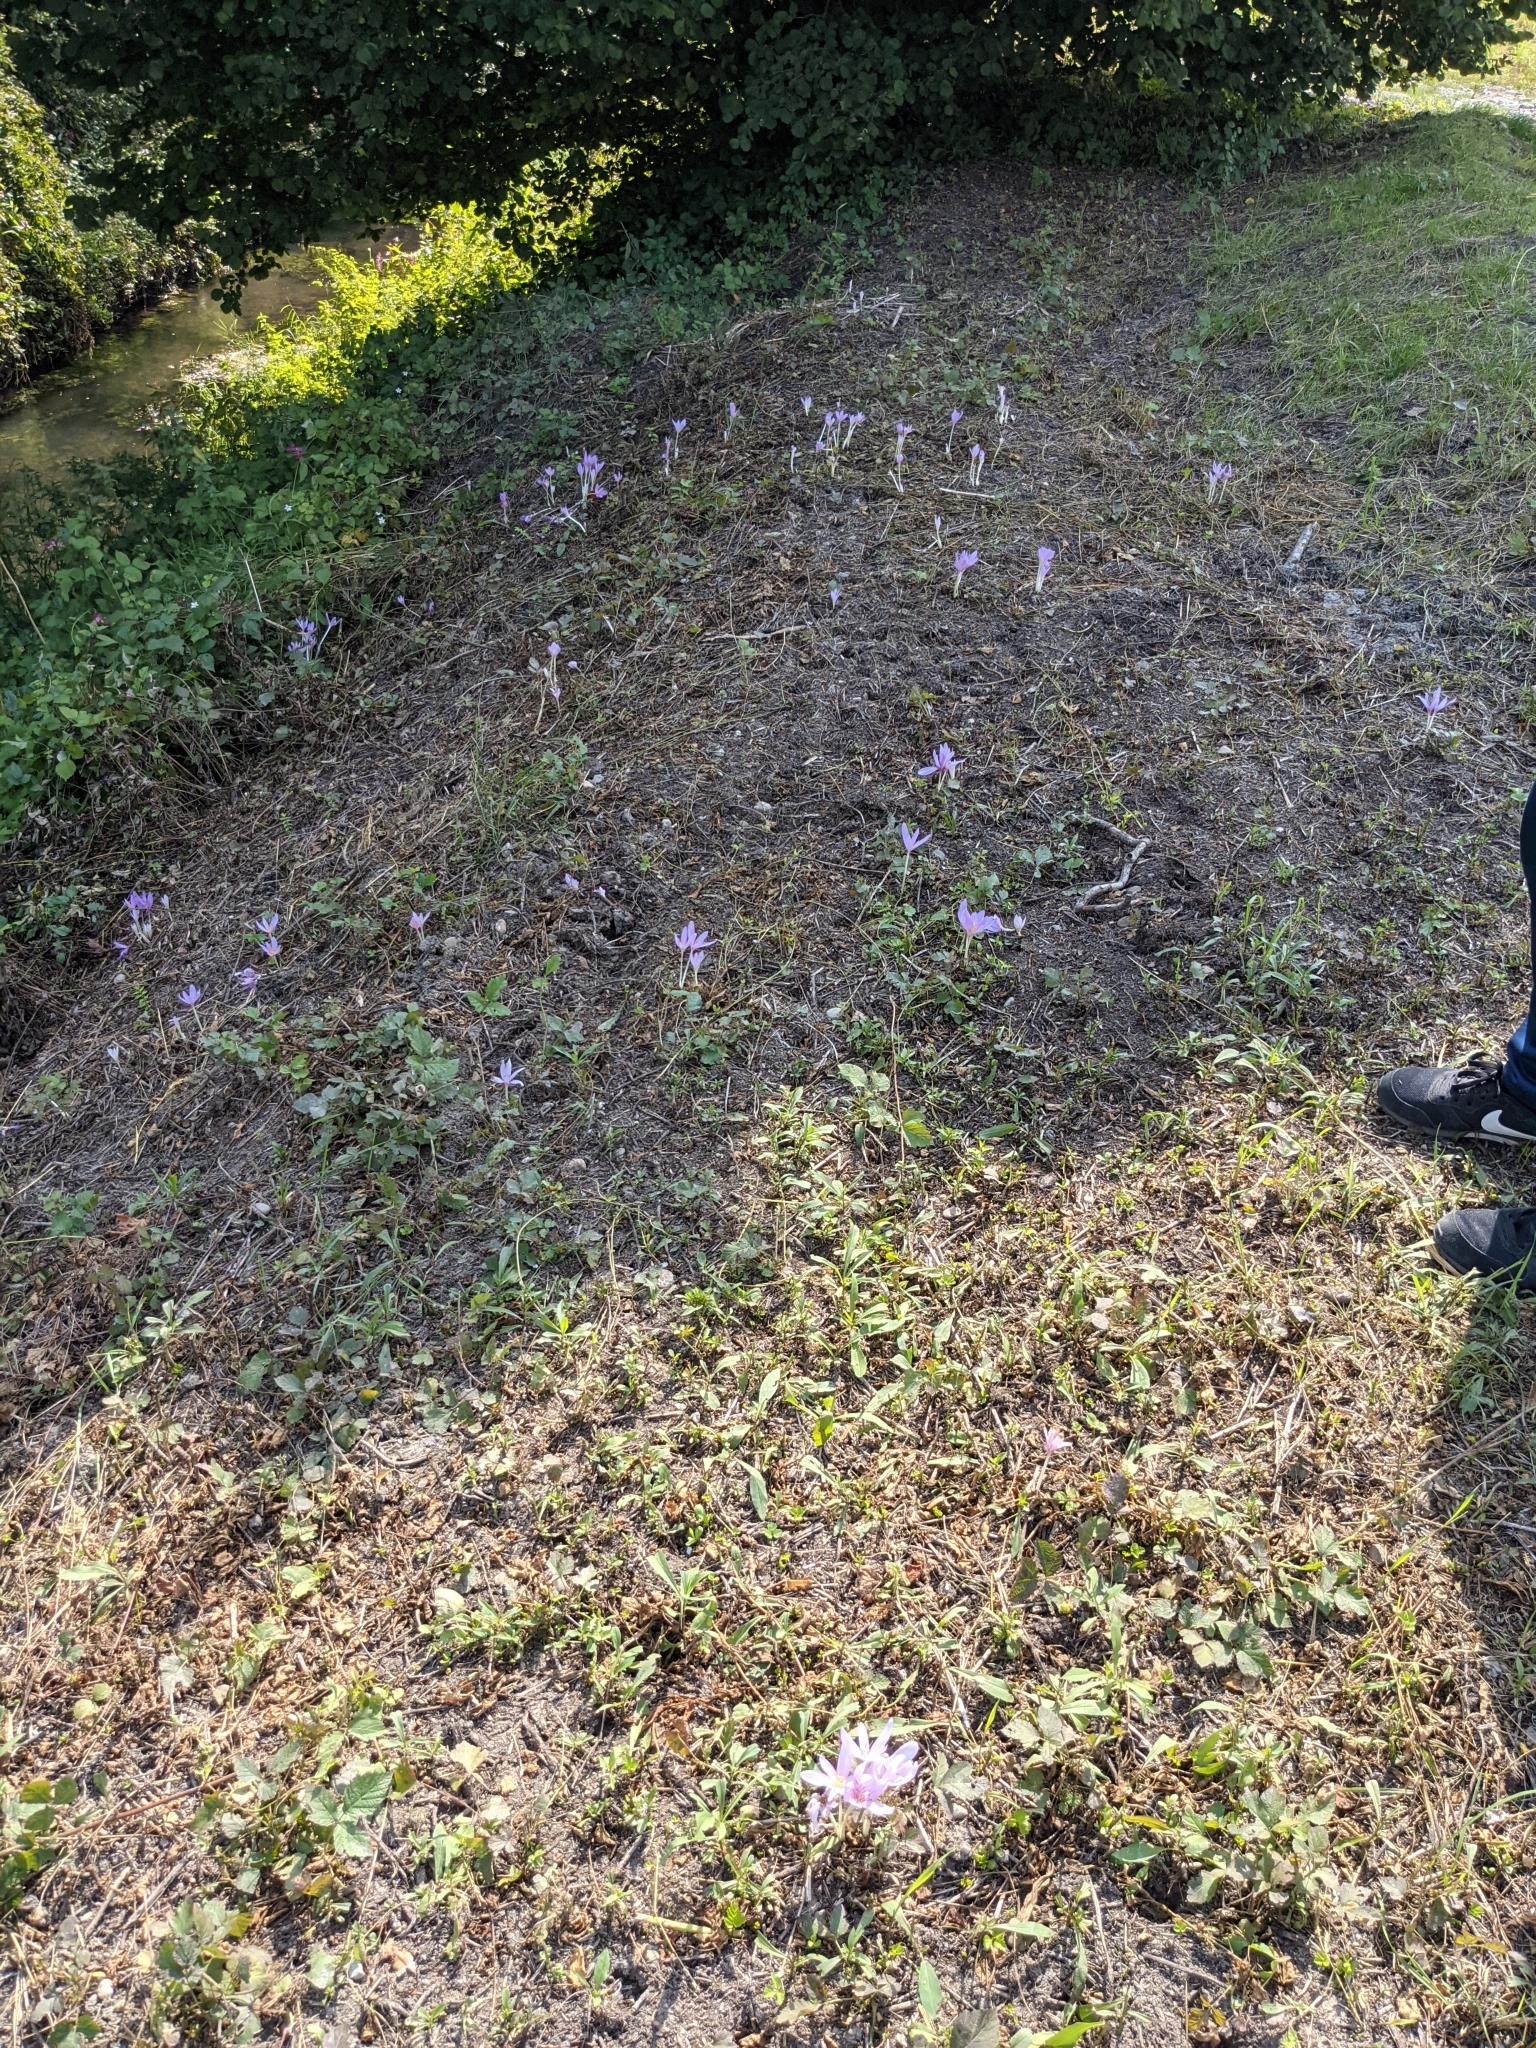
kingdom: Plantae
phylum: Tracheophyta
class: Liliopsida
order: Liliales
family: Colchicaceae
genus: Colchicum
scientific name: Colchicum autumnale
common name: Autumn crocus
